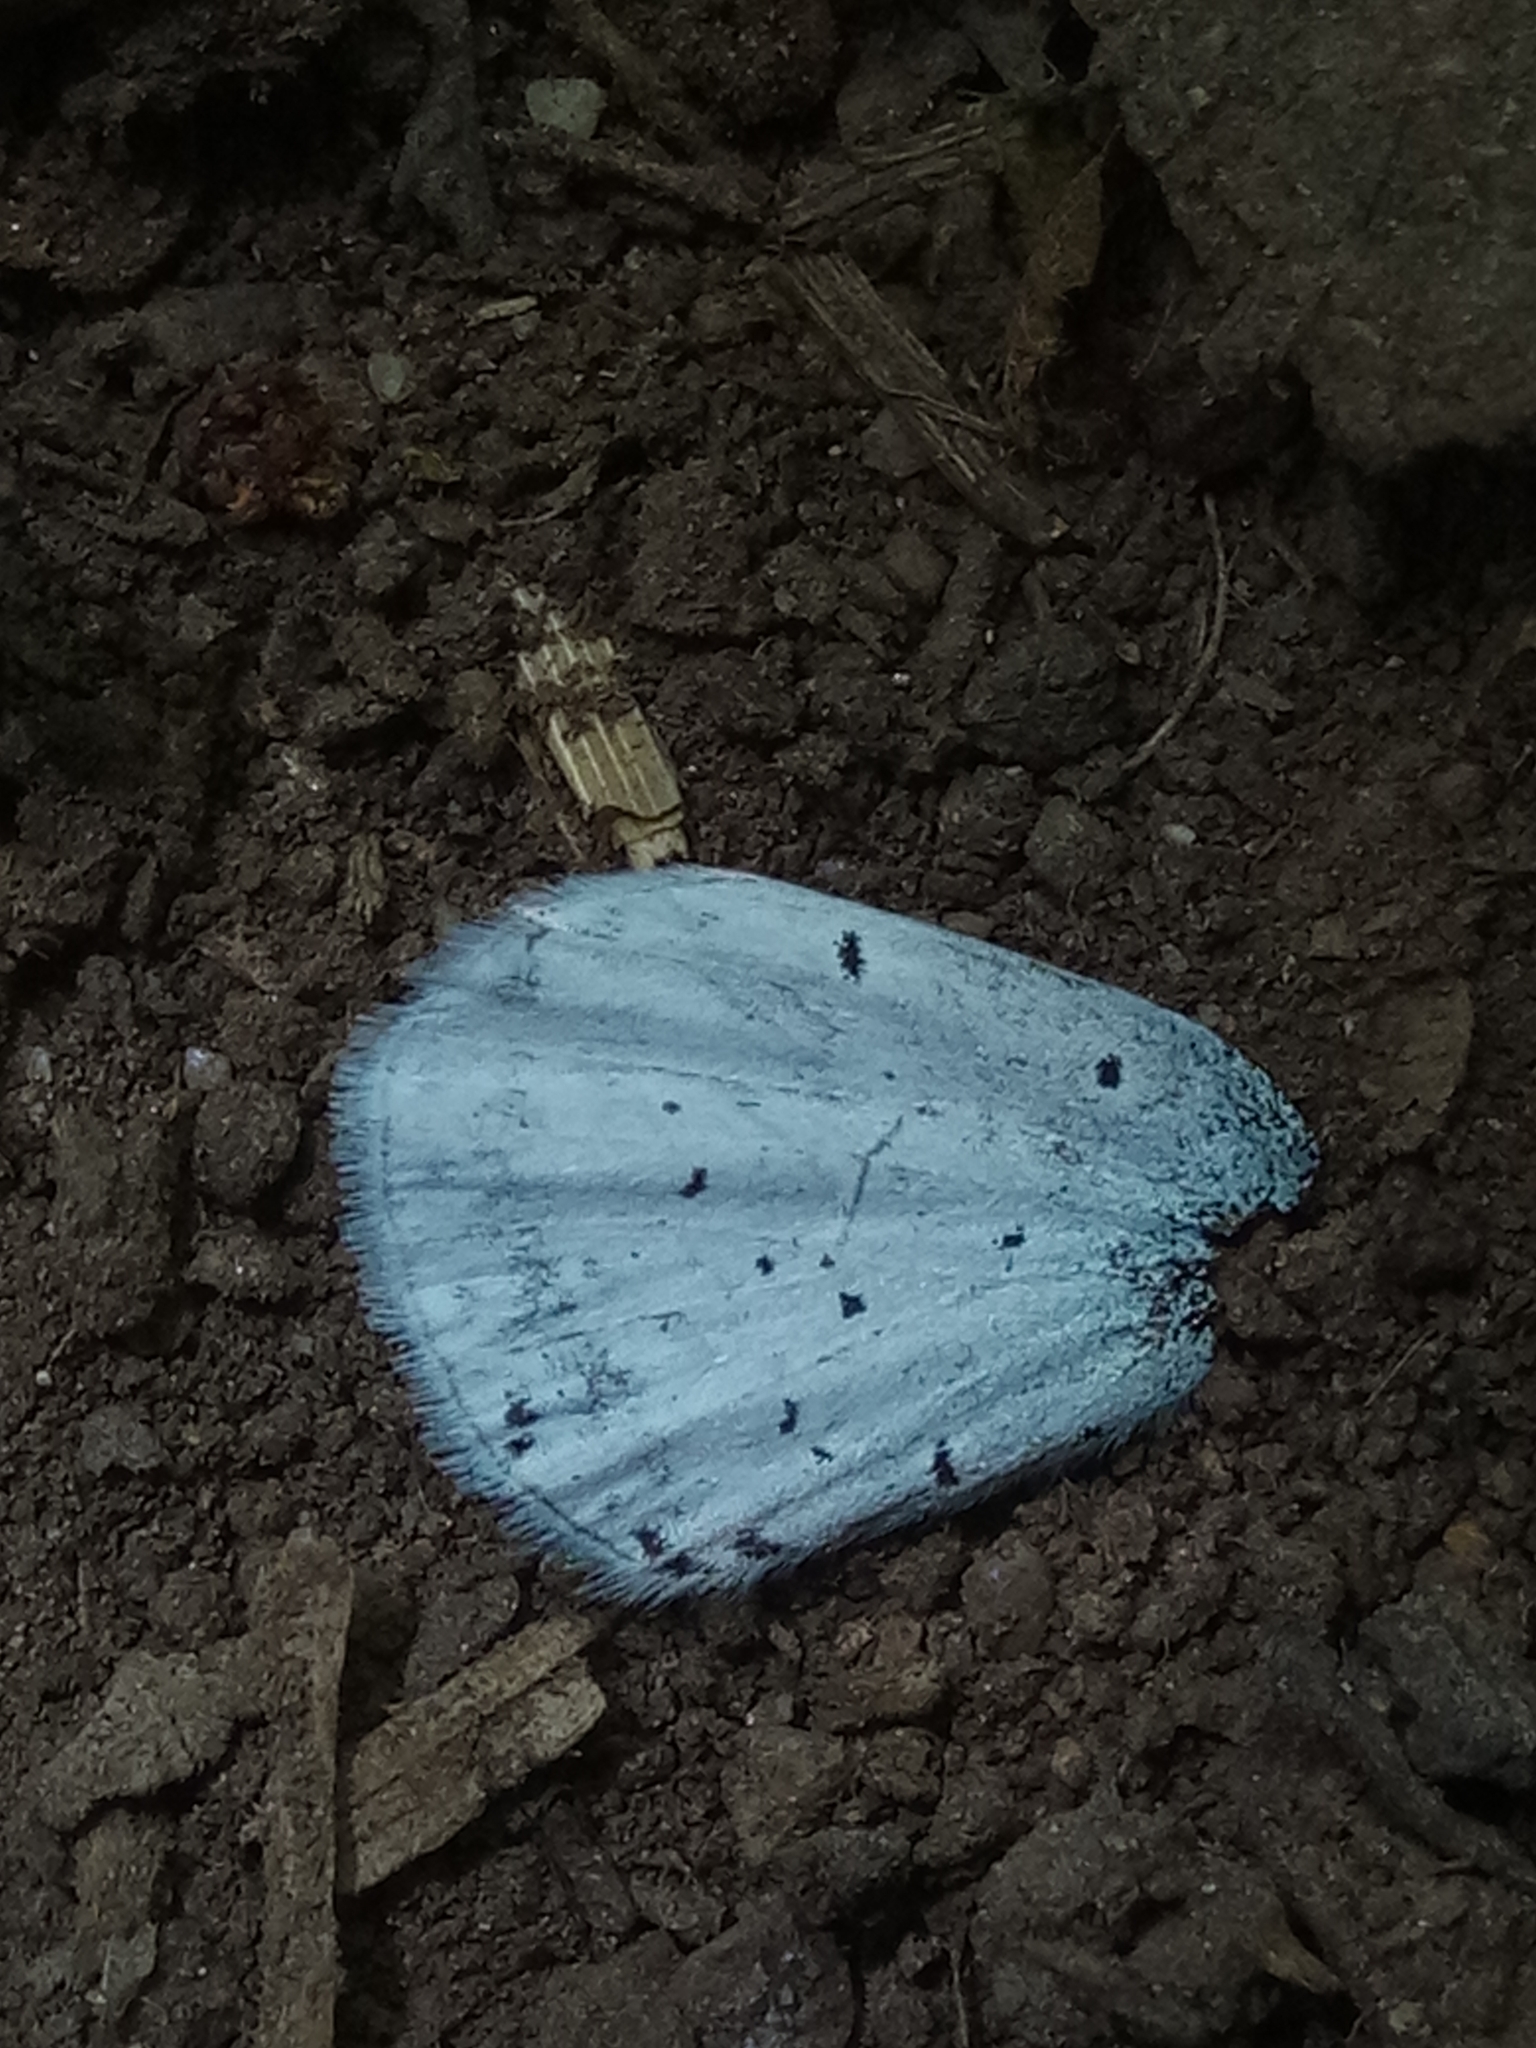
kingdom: Animalia
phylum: Arthropoda
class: Insecta
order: Lepidoptera
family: Lycaenidae
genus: Celastrina
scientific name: Celastrina argiolus
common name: Holly blue
